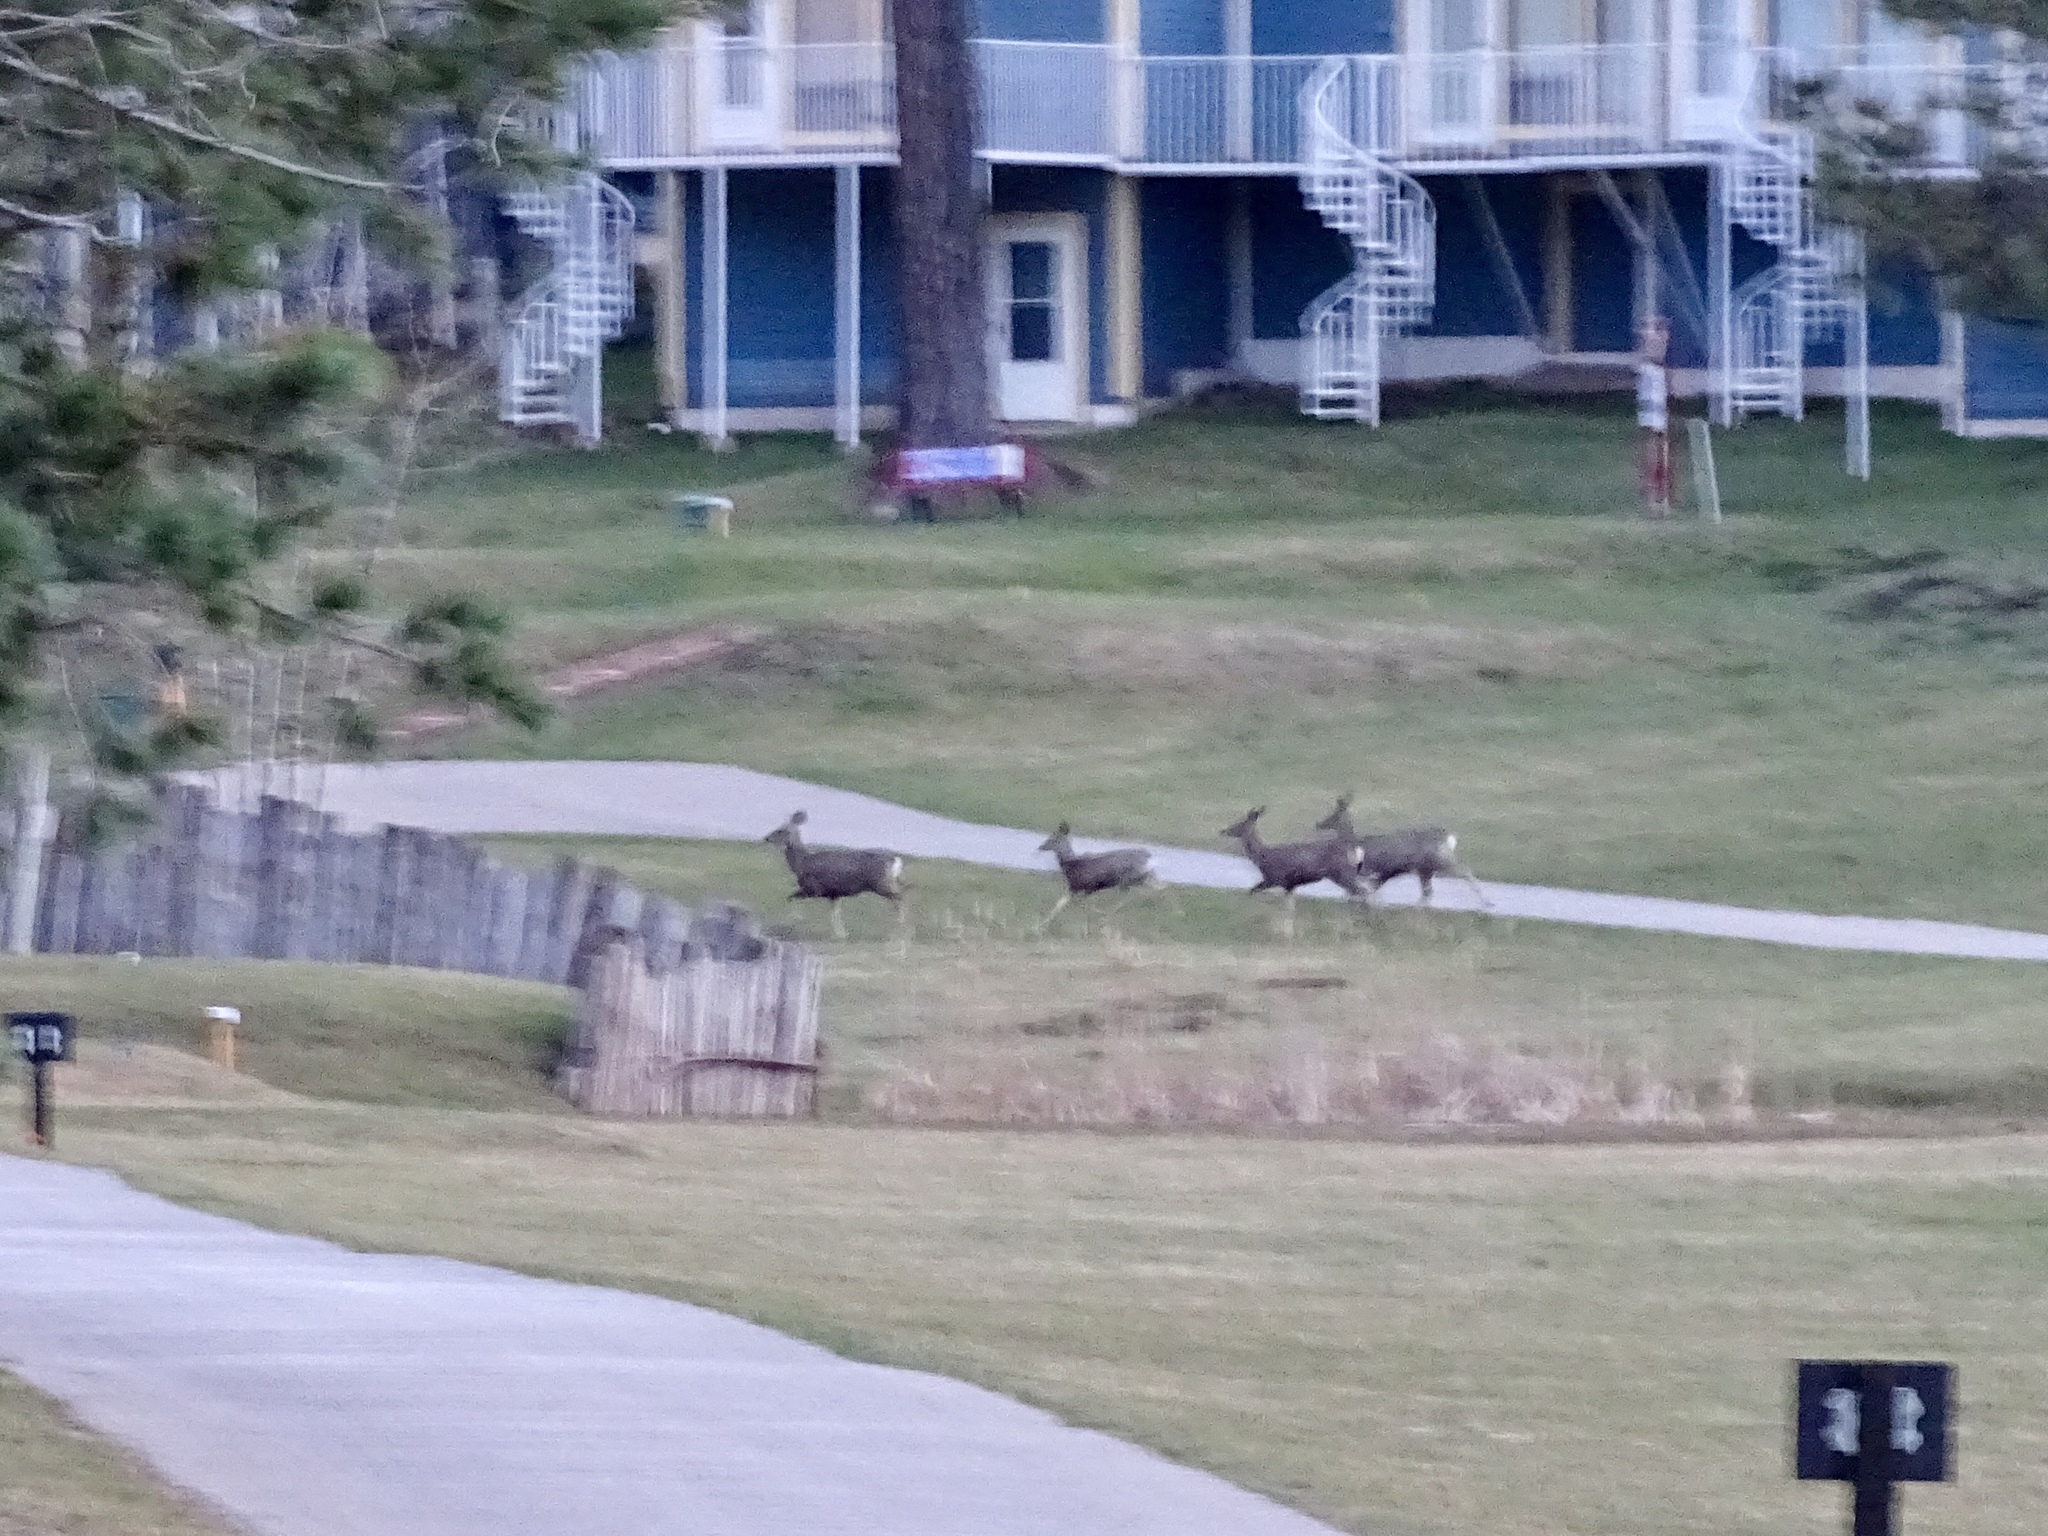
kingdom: Animalia
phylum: Chordata
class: Mammalia
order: Artiodactyla
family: Cervidae
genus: Odocoileus
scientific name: Odocoileus hemionus
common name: Mule deer
